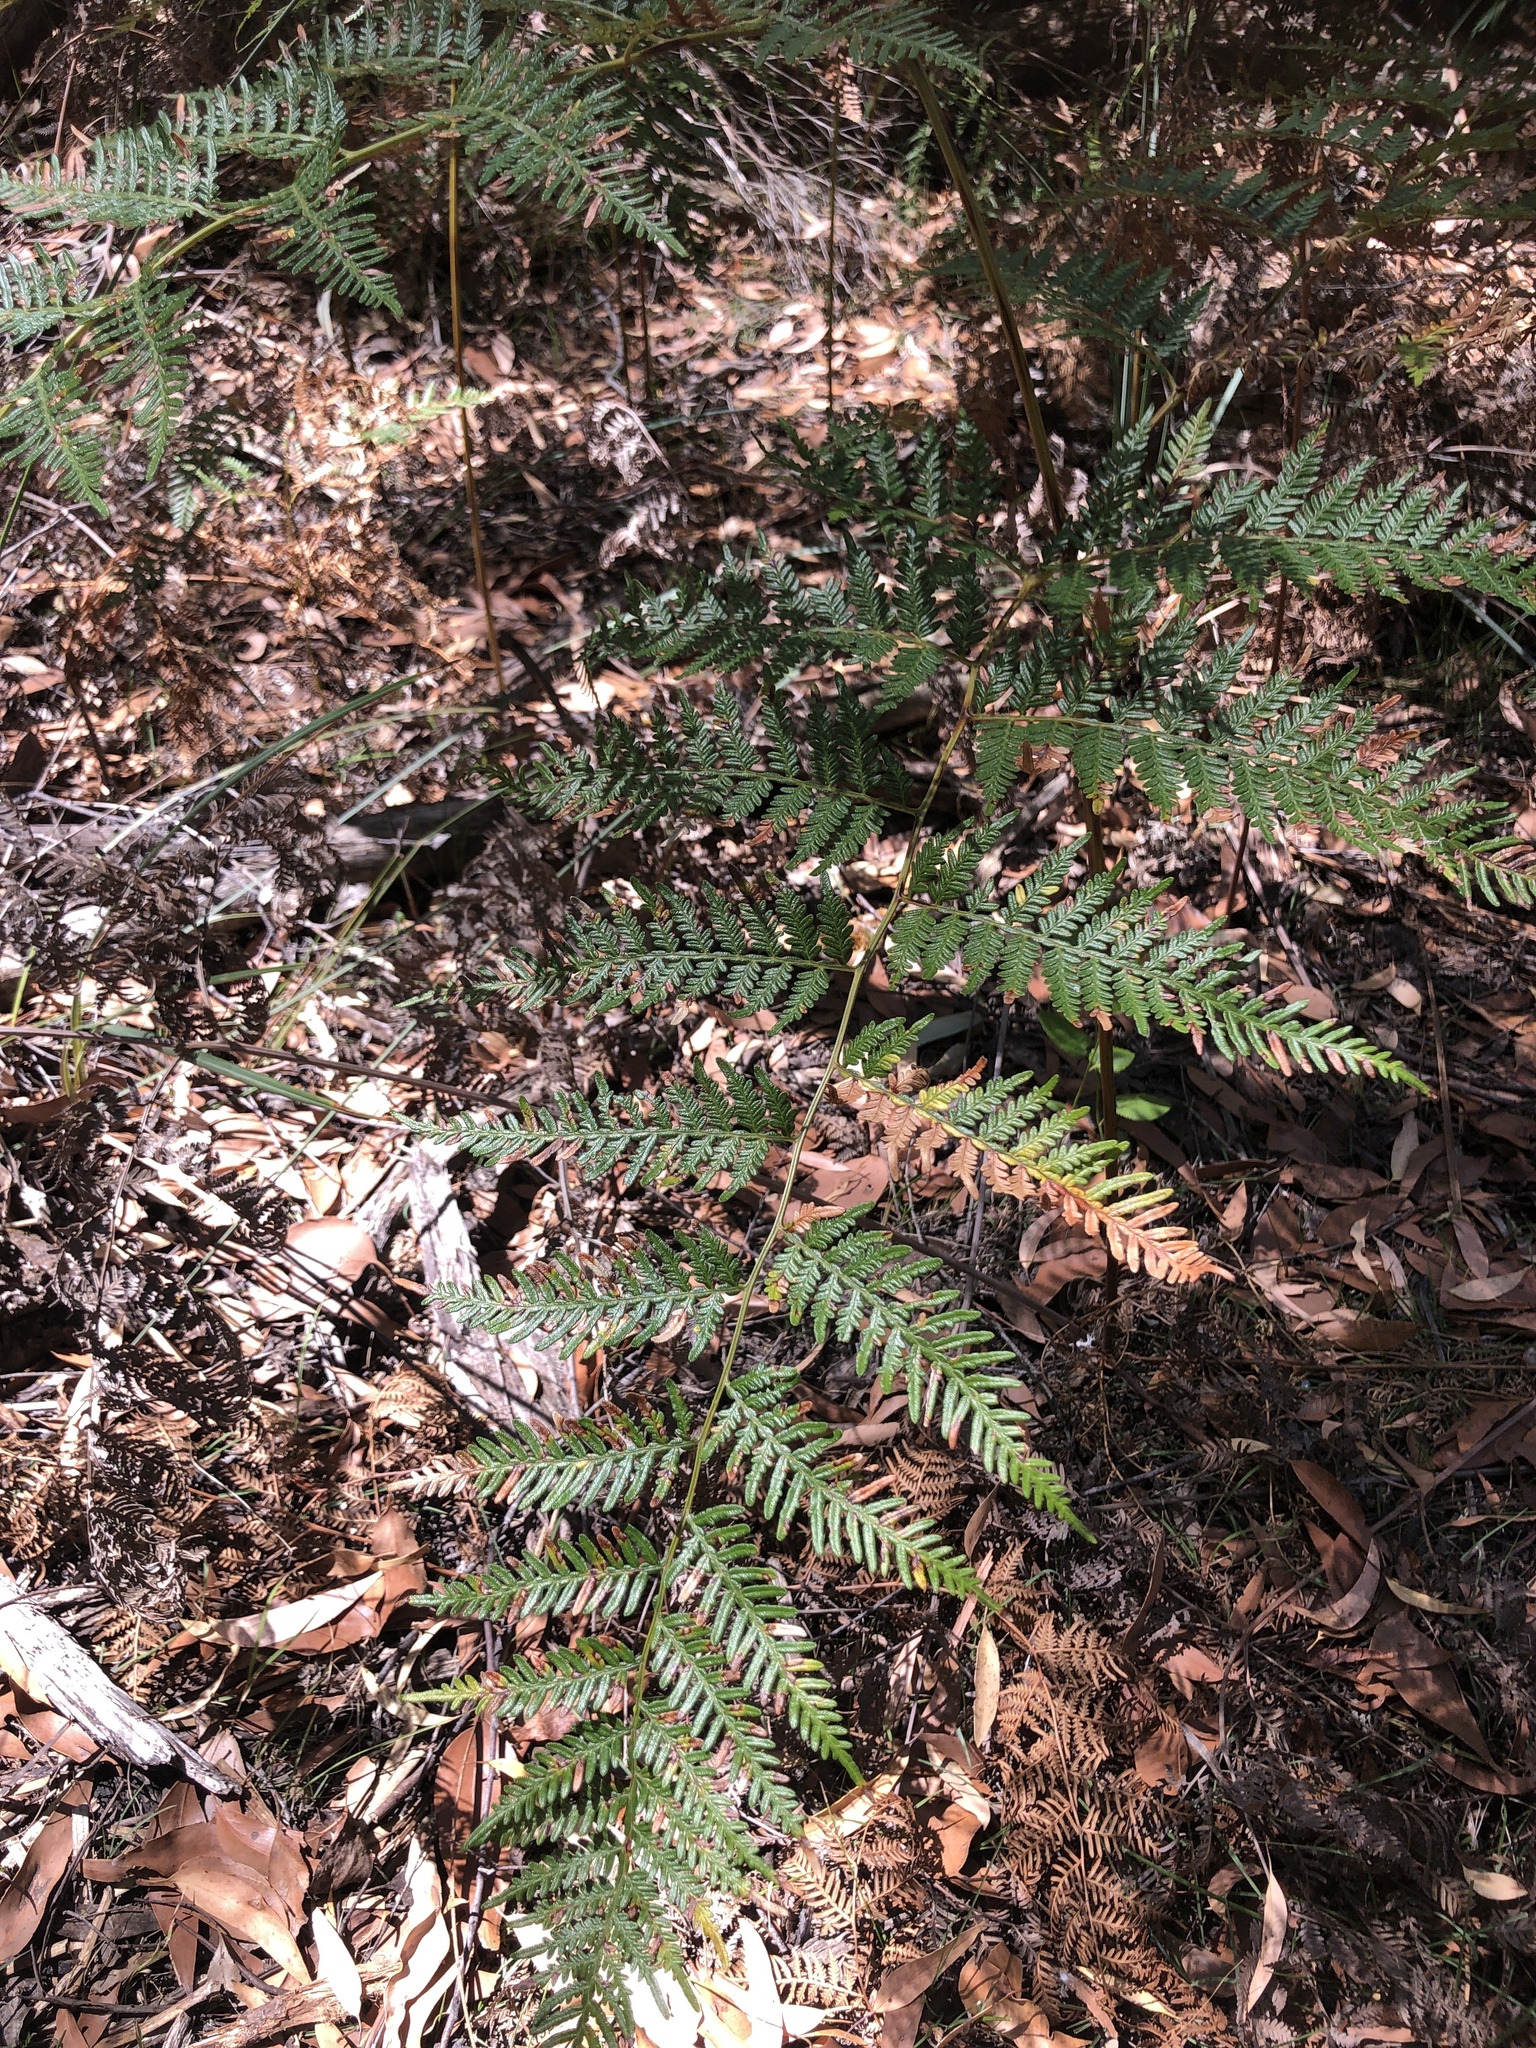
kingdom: Plantae
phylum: Tracheophyta
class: Polypodiopsida
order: Polypodiales
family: Dennstaedtiaceae
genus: Pteridium
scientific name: Pteridium esculentum
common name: Bracken fern
